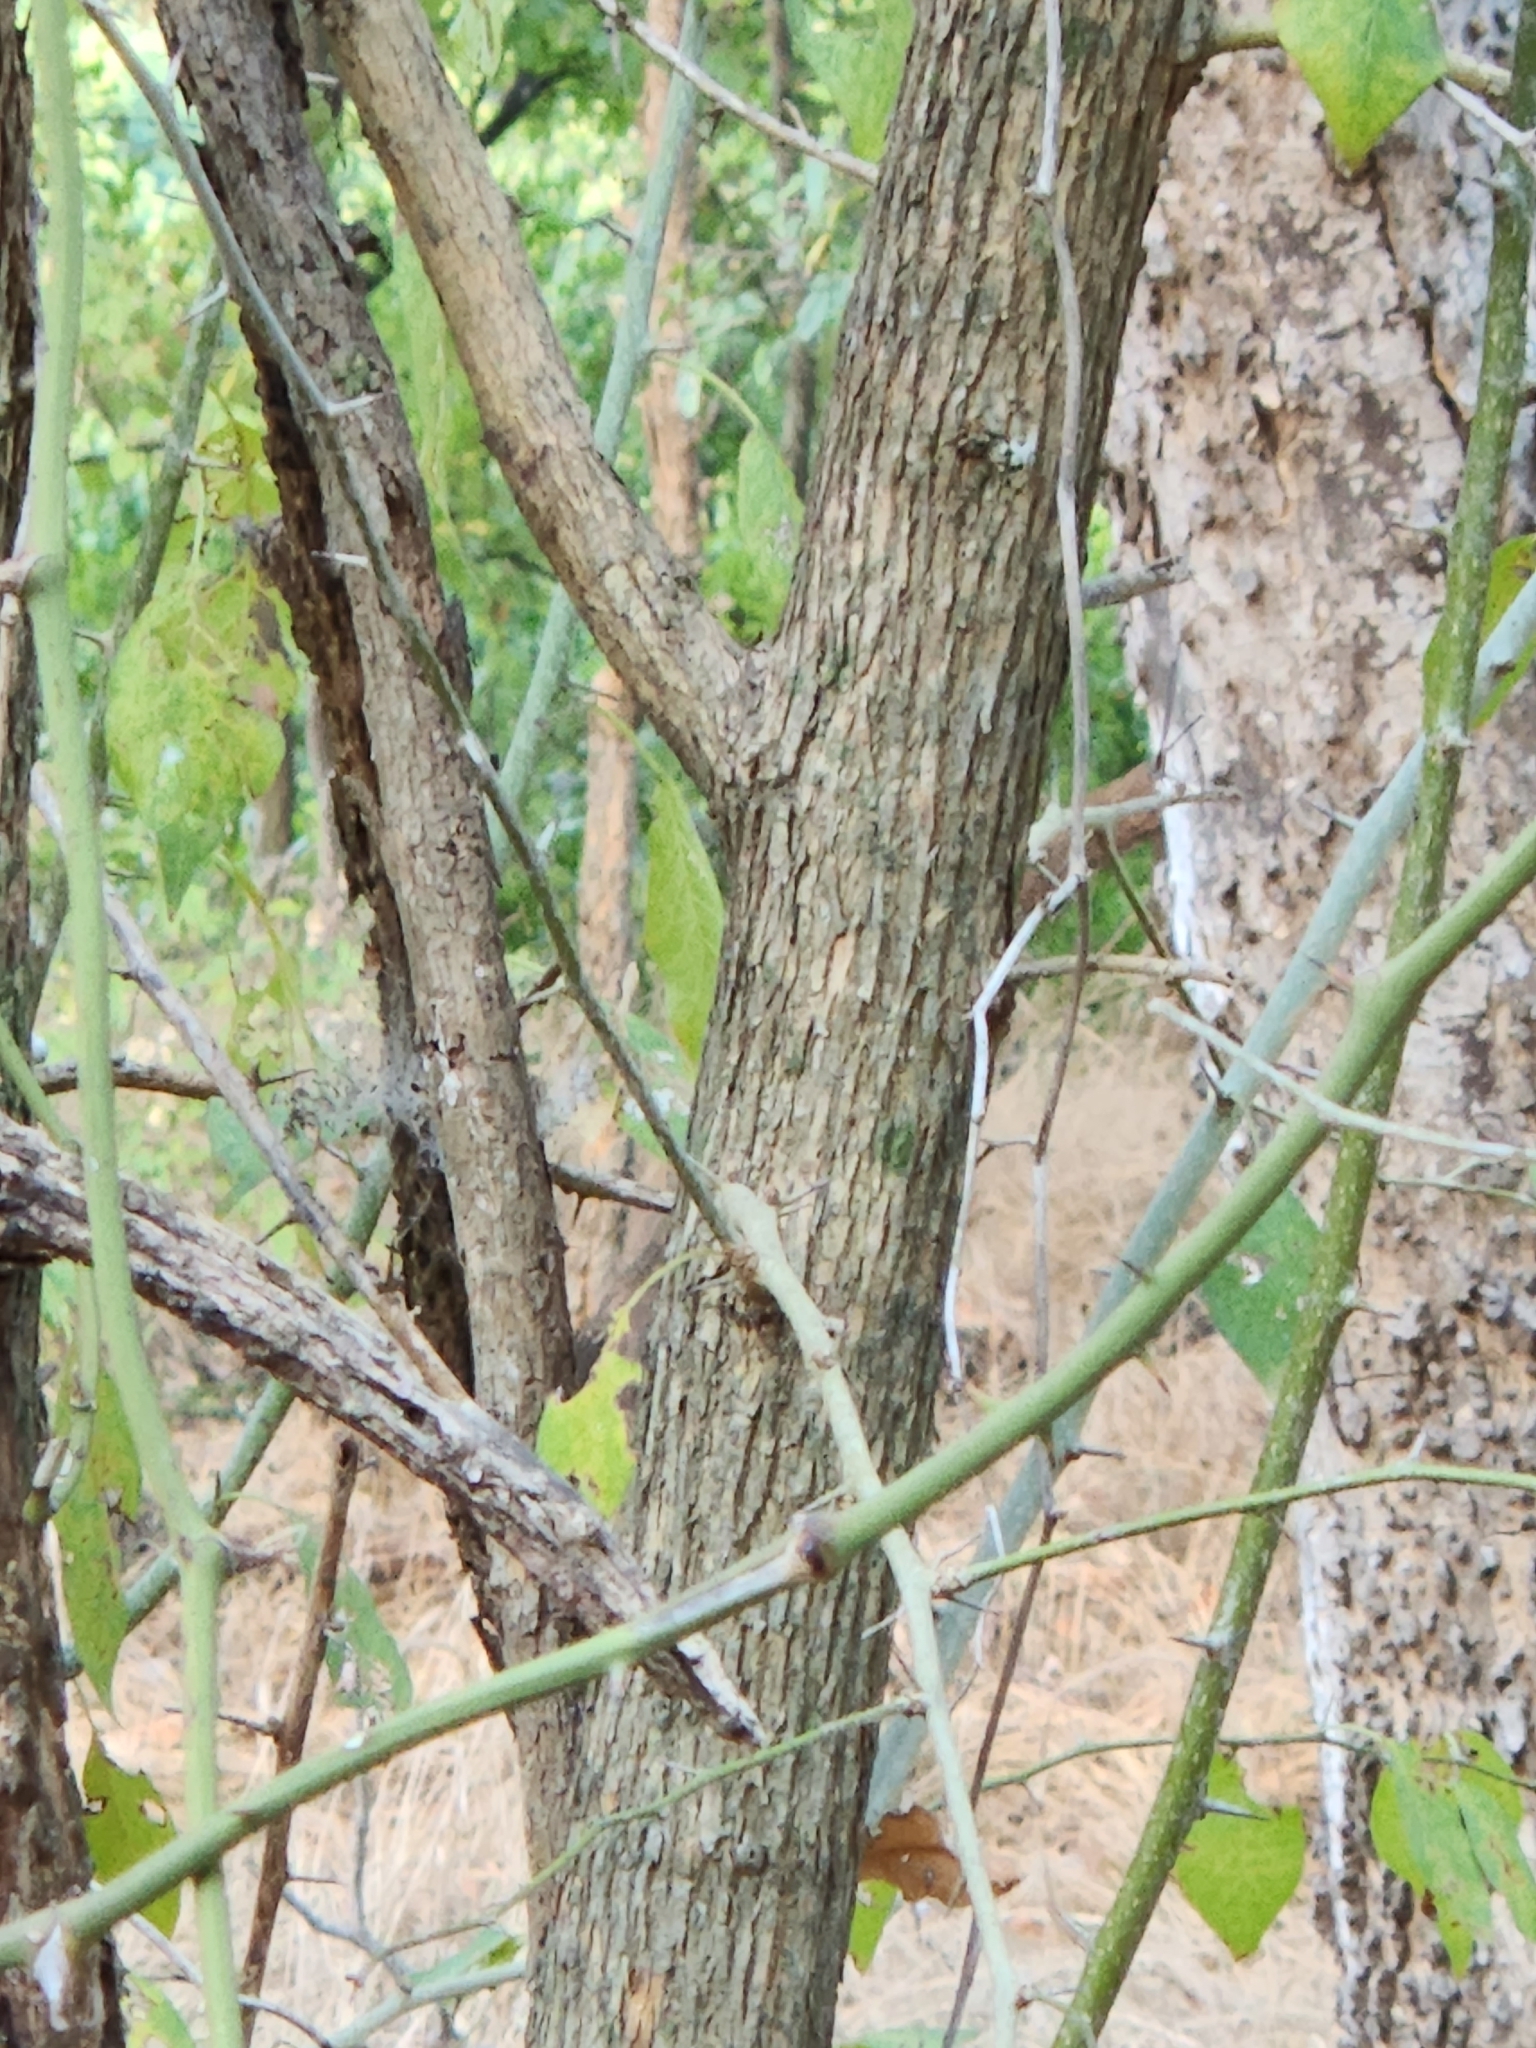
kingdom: Plantae
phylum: Tracheophyta
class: Magnoliopsida
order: Rosales
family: Moraceae
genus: Maclura
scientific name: Maclura pomifera
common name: Osage-orange
